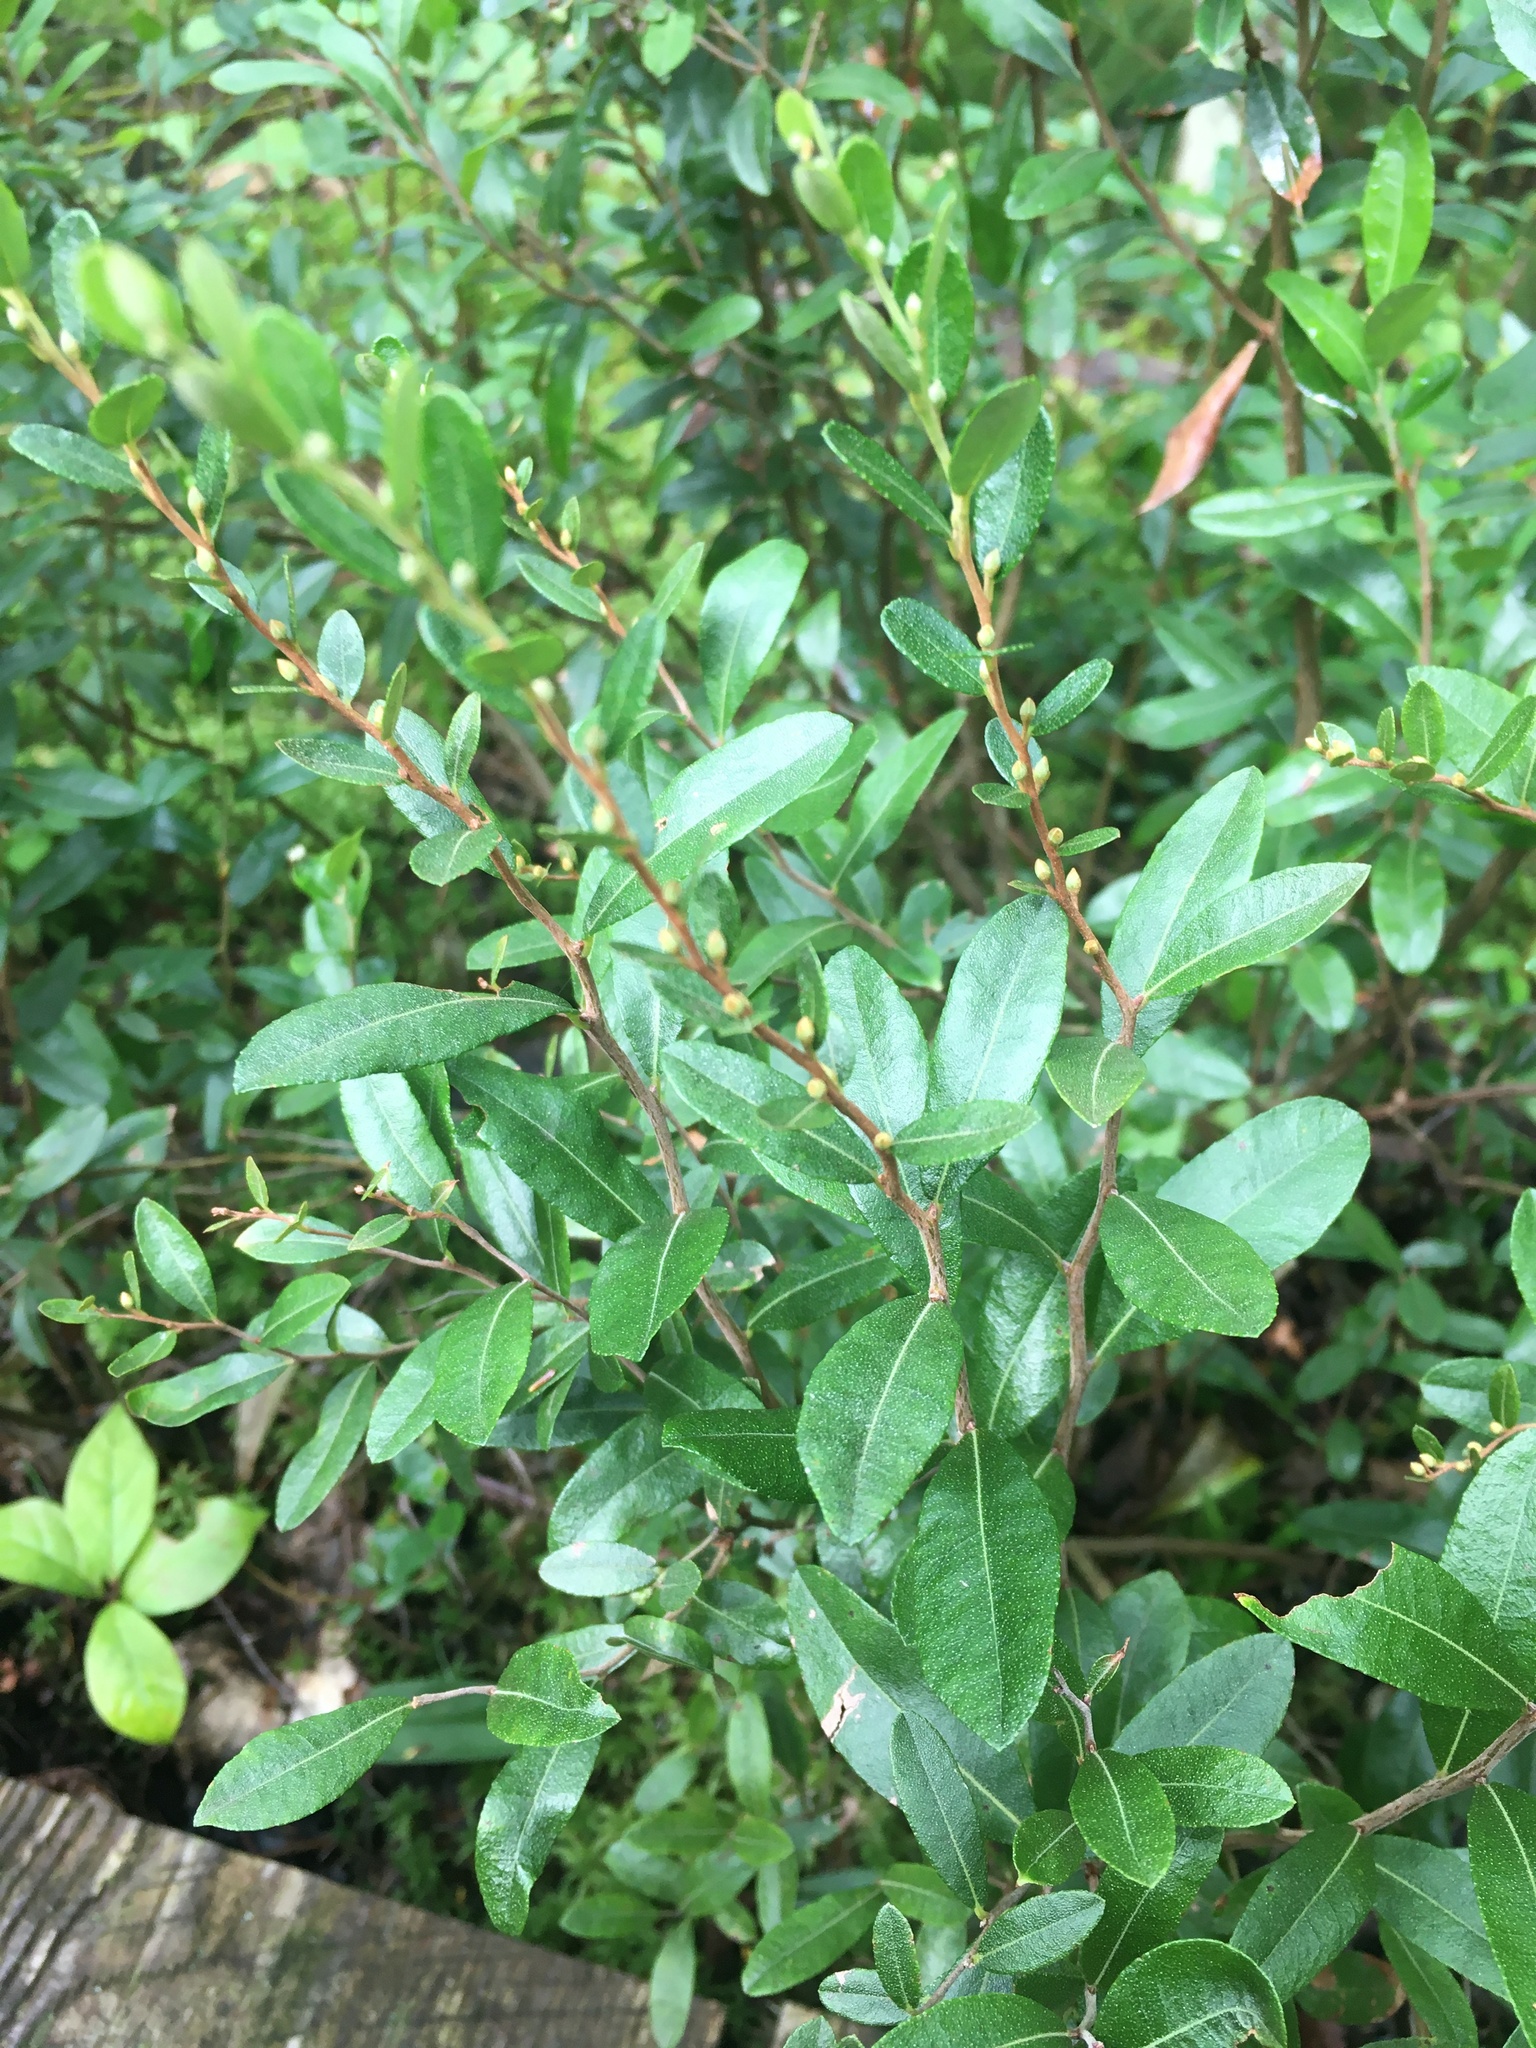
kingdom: Plantae
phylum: Tracheophyta
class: Magnoliopsida
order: Ericales
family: Ericaceae
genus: Chamaedaphne
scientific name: Chamaedaphne calyculata
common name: Leatherleaf
